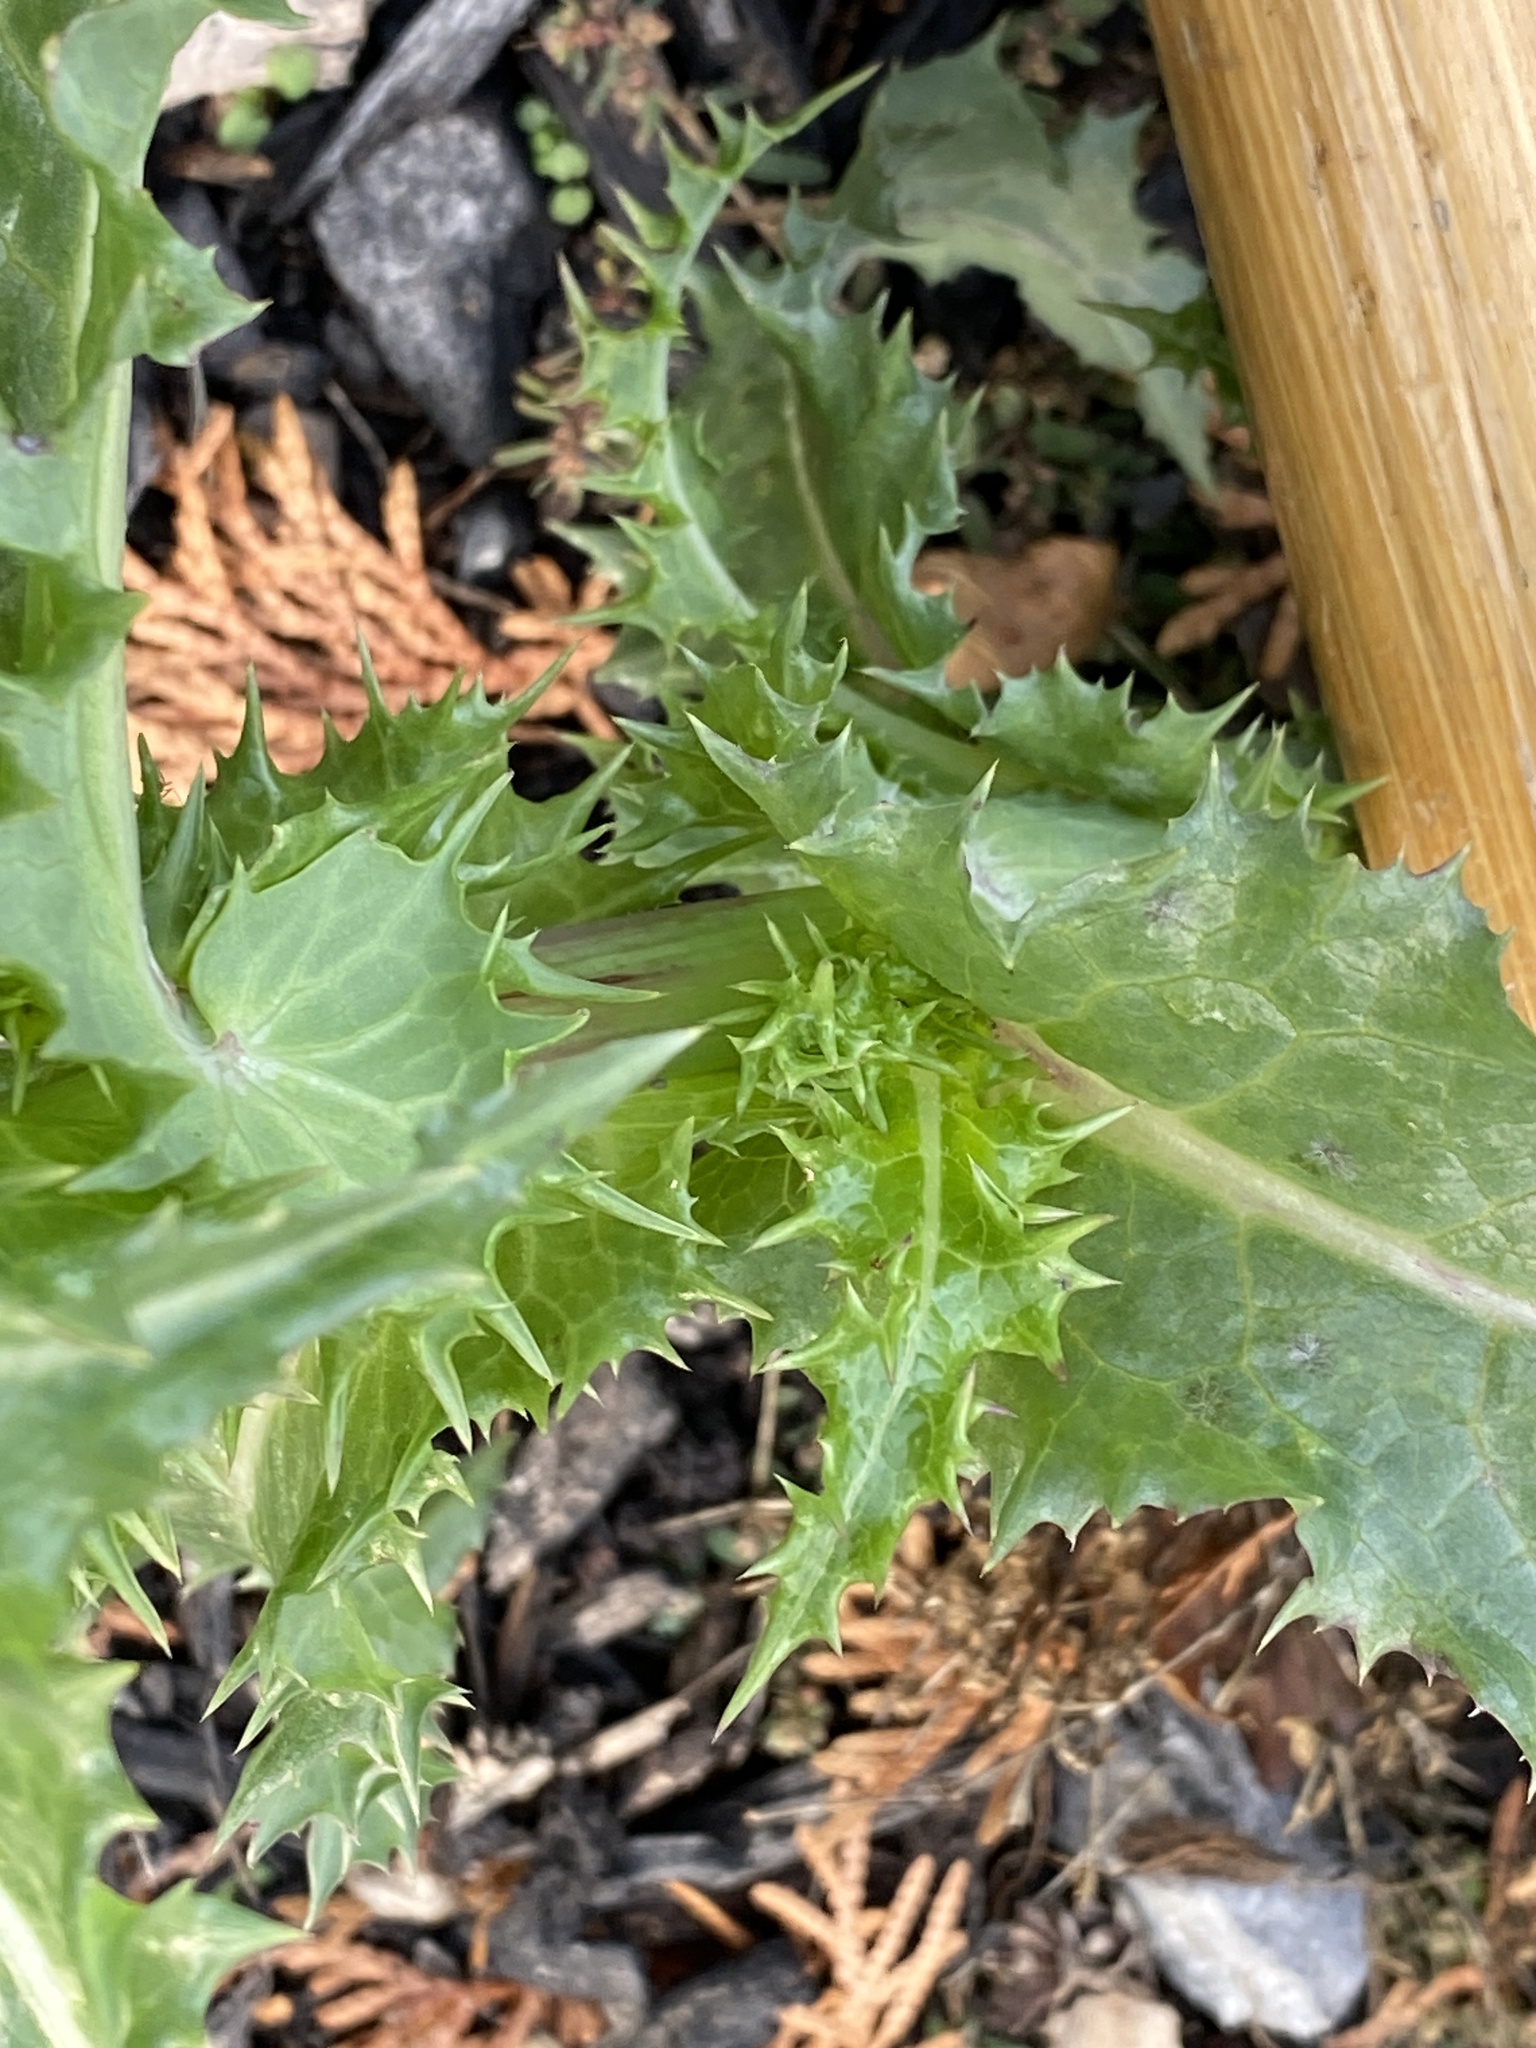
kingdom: Plantae
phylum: Tracheophyta
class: Magnoliopsida
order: Asterales
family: Asteraceae
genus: Sonchus
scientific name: Sonchus asper
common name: Prickly sow-thistle
